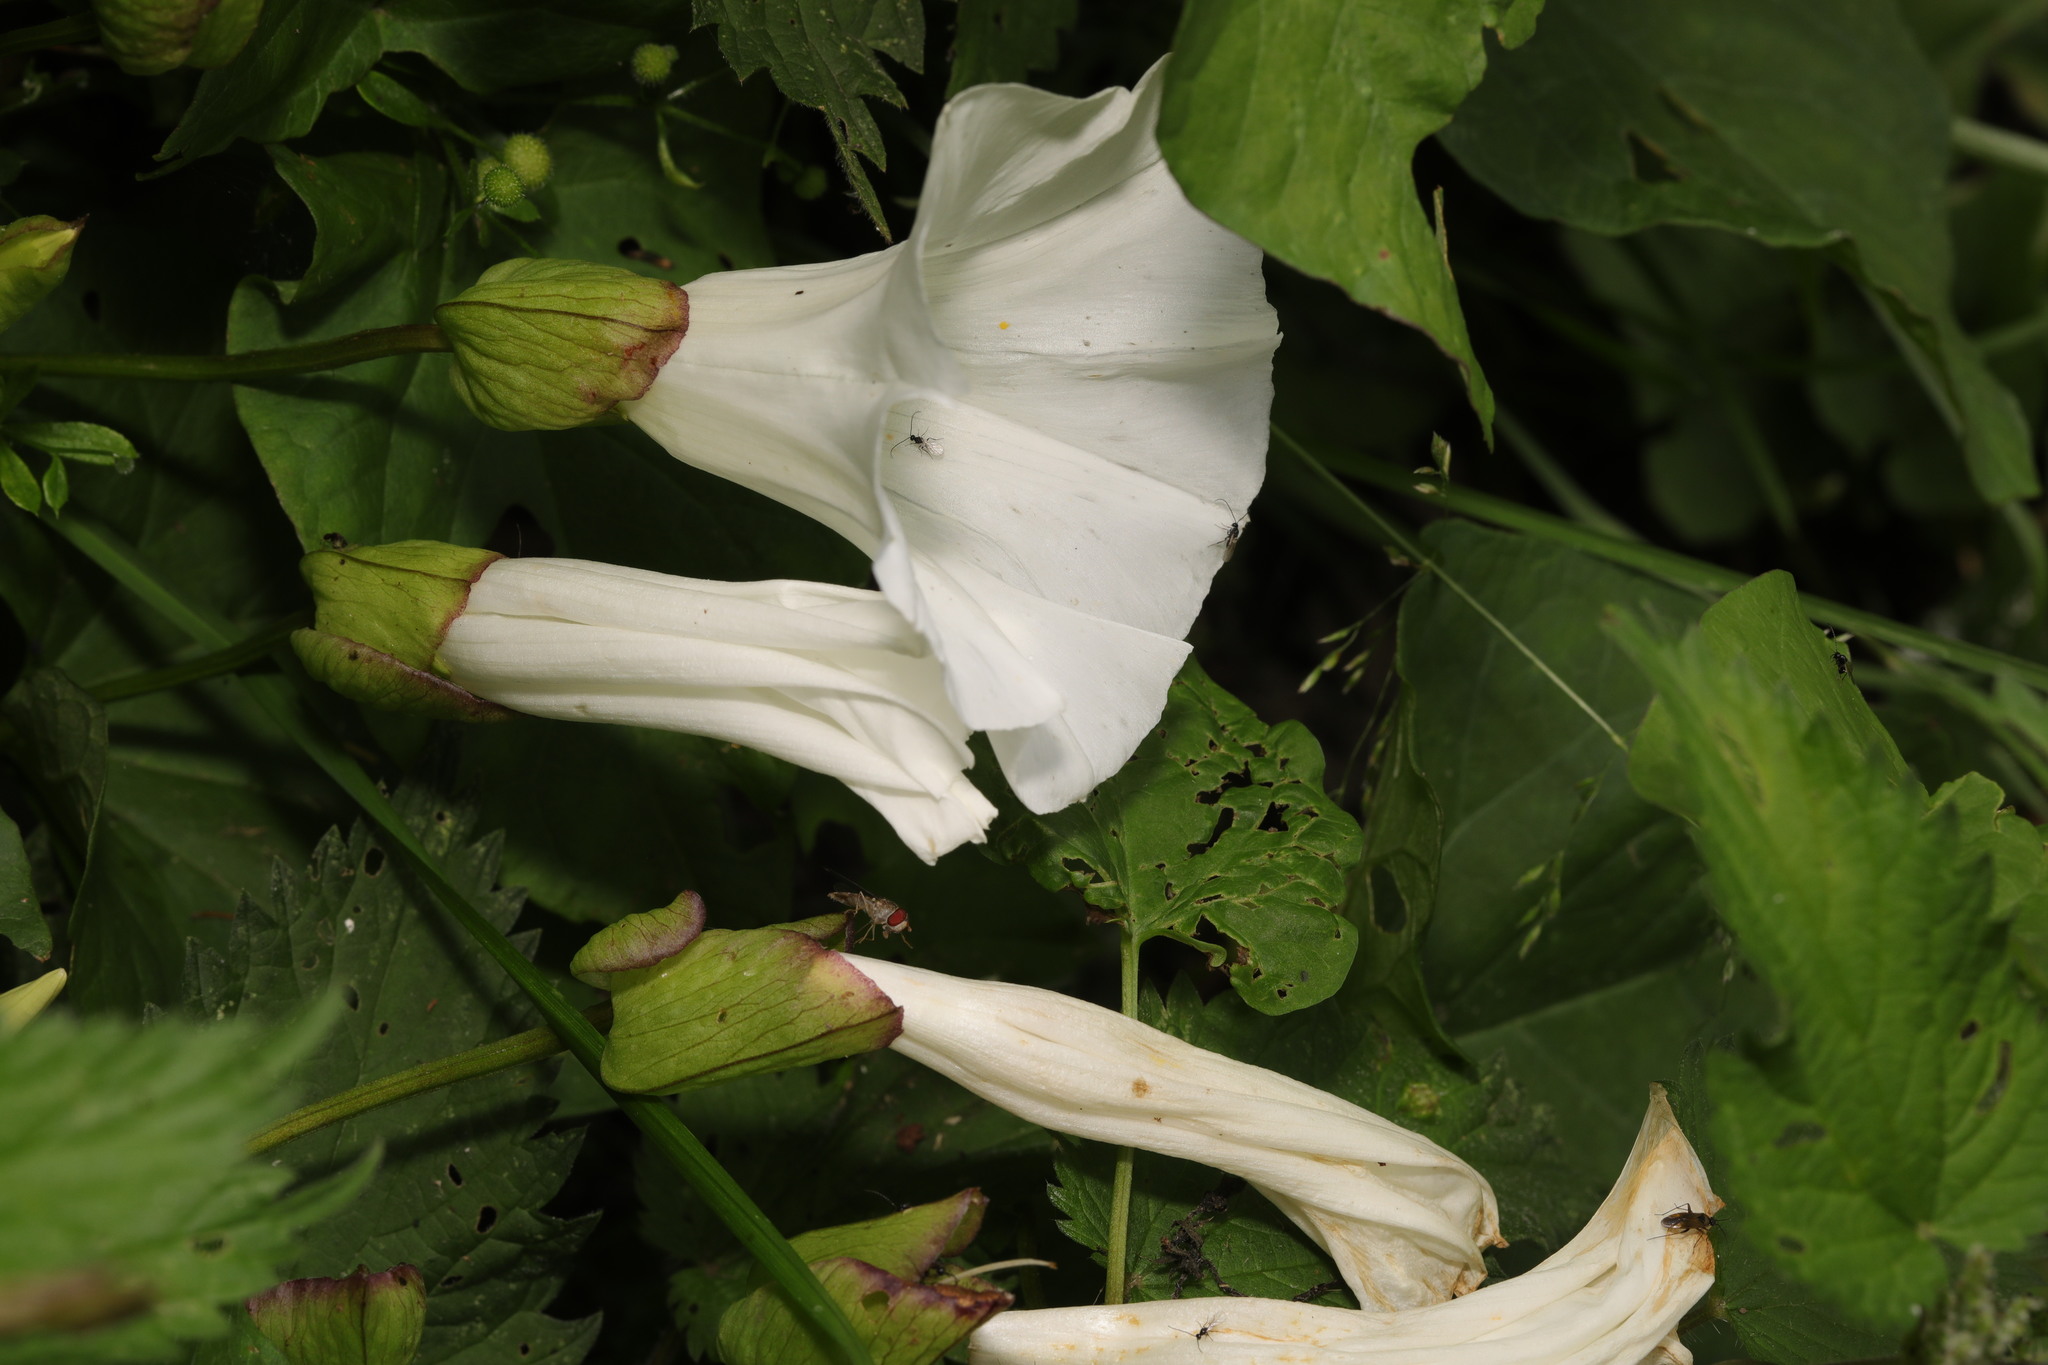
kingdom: Plantae
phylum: Tracheophyta
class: Magnoliopsida
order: Solanales
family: Convolvulaceae
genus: Calystegia
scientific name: Calystegia silvatica
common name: Large bindweed
